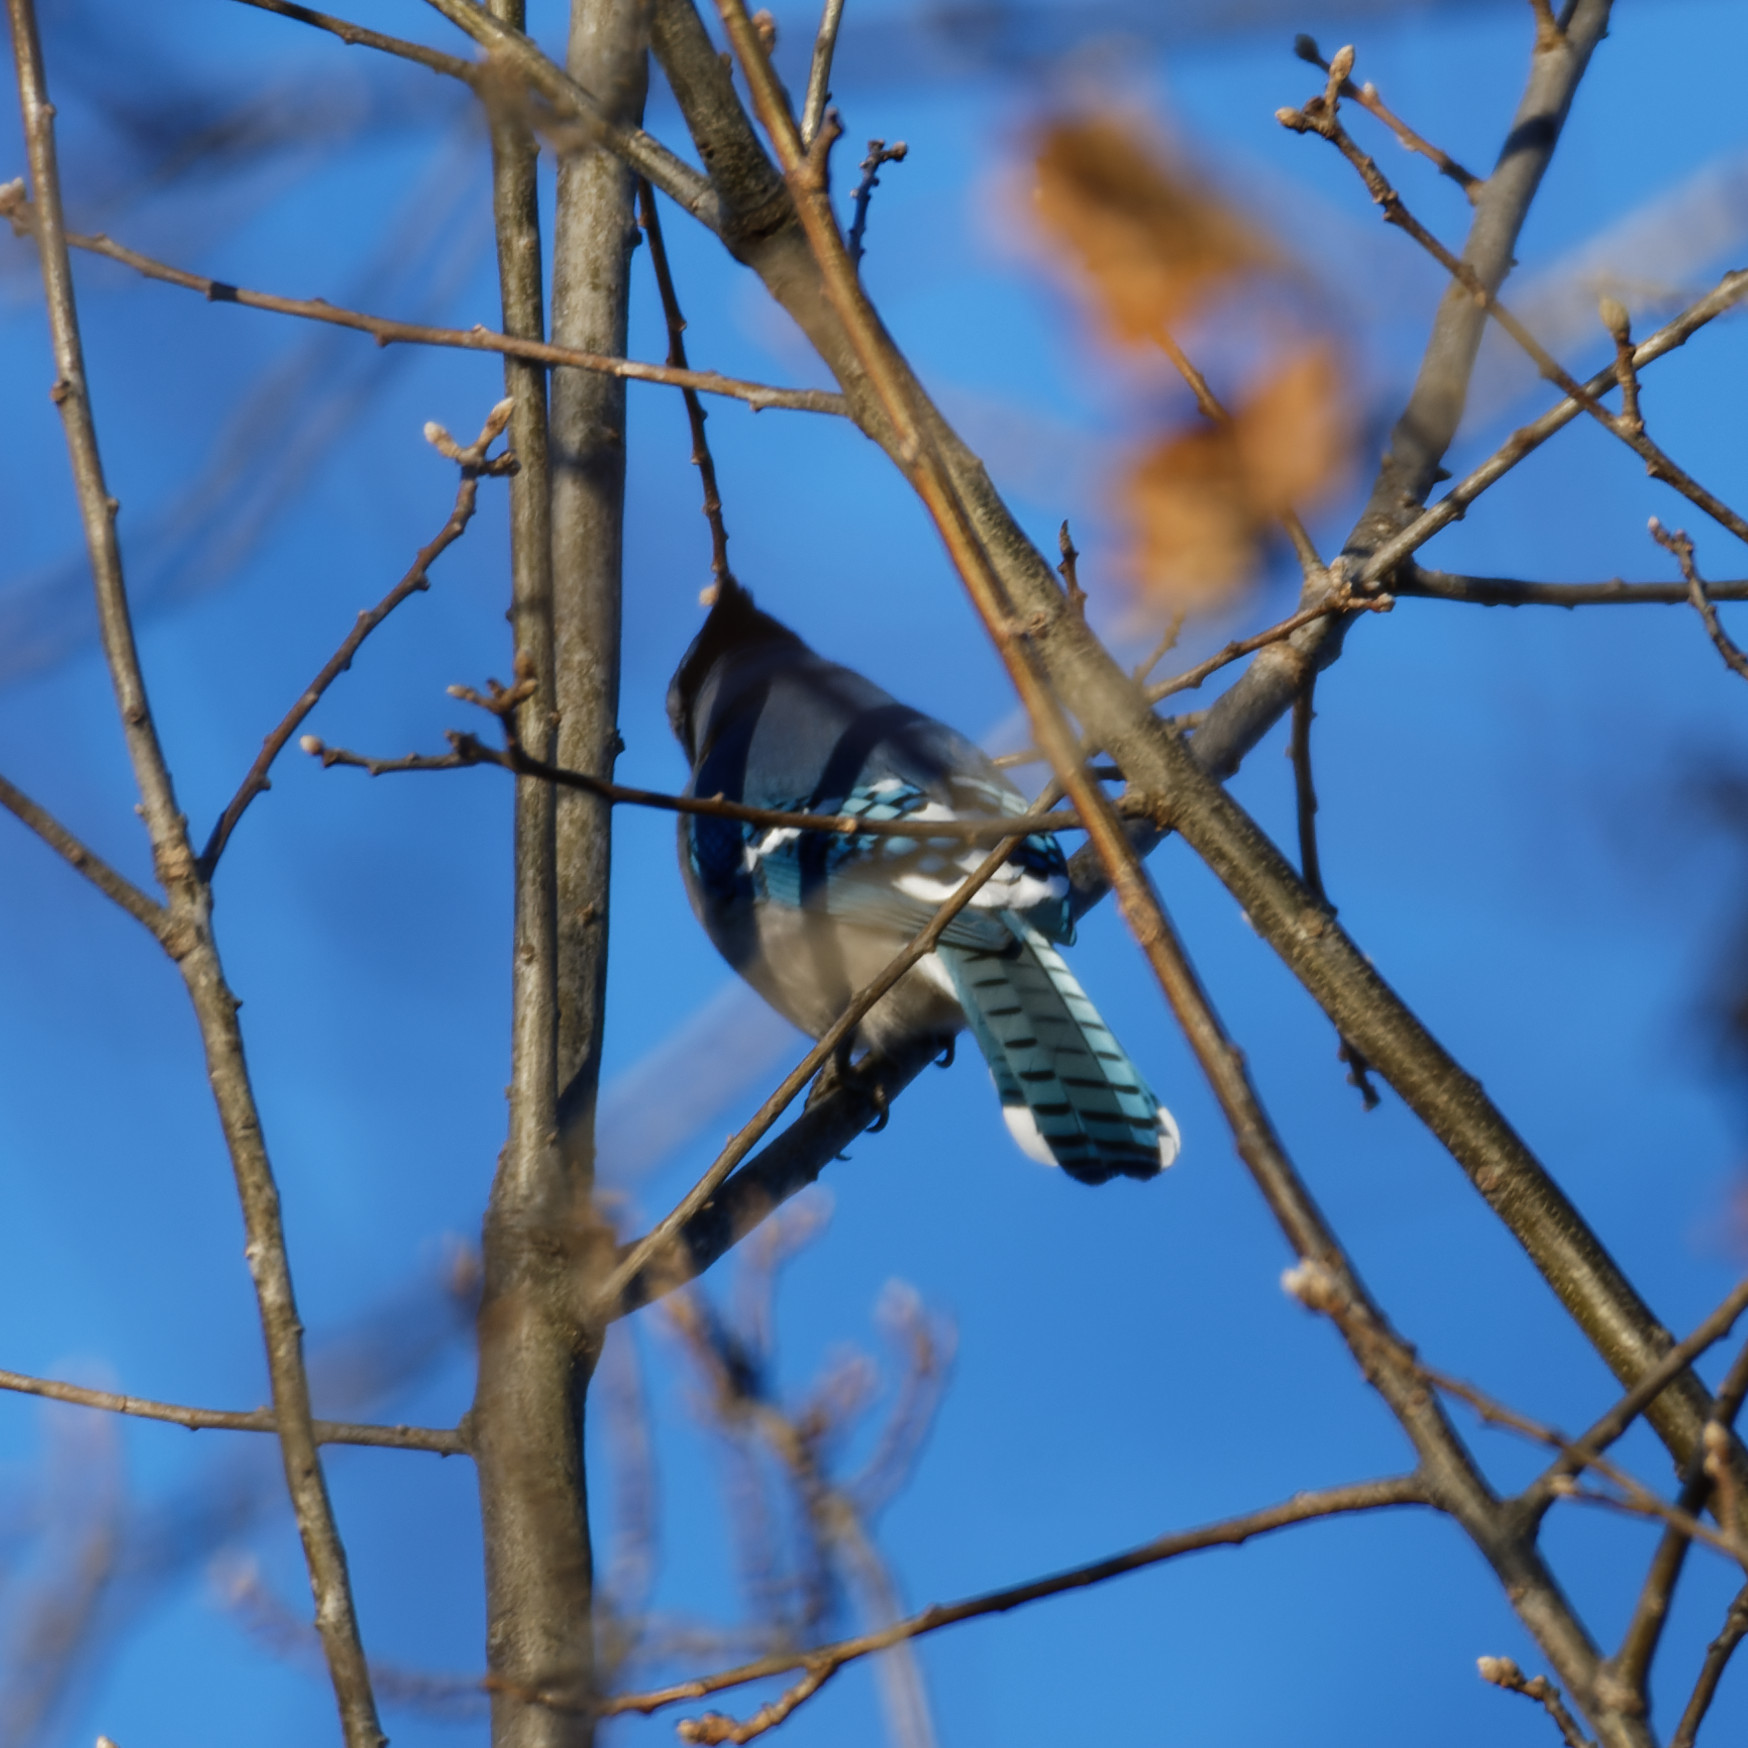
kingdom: Animalia
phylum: Chordata
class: Aves
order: Passeriformes
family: Corvidae
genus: Cyanocitta
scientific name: Cyanocitta cristata
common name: Blue jay
